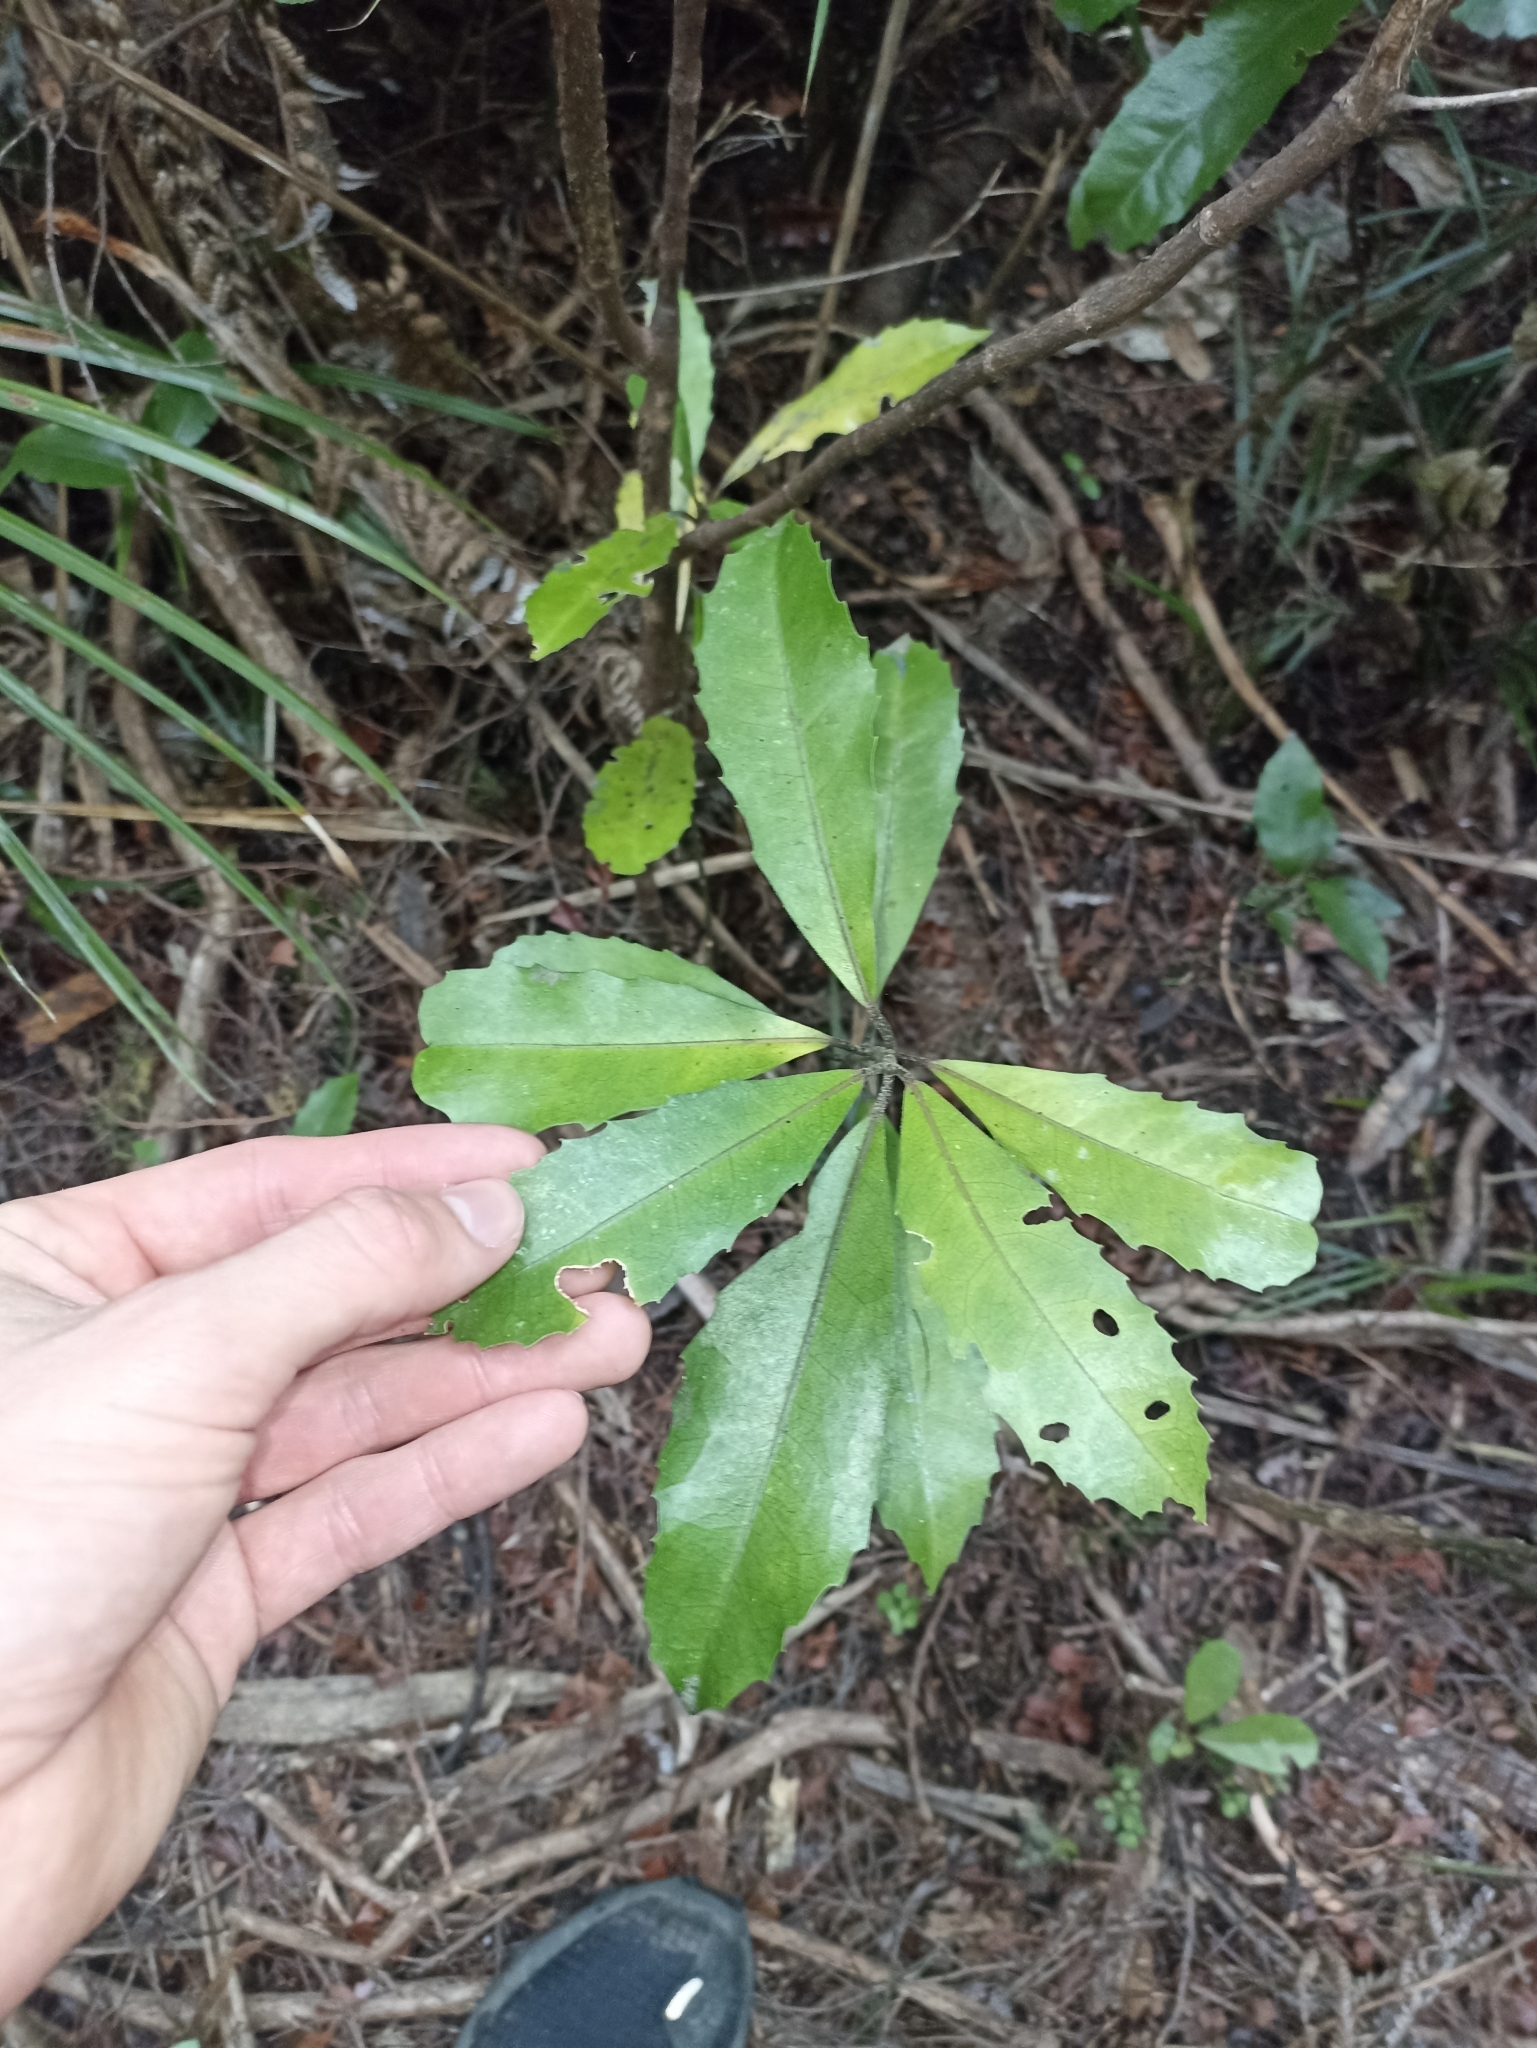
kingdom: Plantae
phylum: Tracheophyta
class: Magnoliopsida
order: Laurales
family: Monimiaceae
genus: Hedycarya
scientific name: Hedycarya arborea
